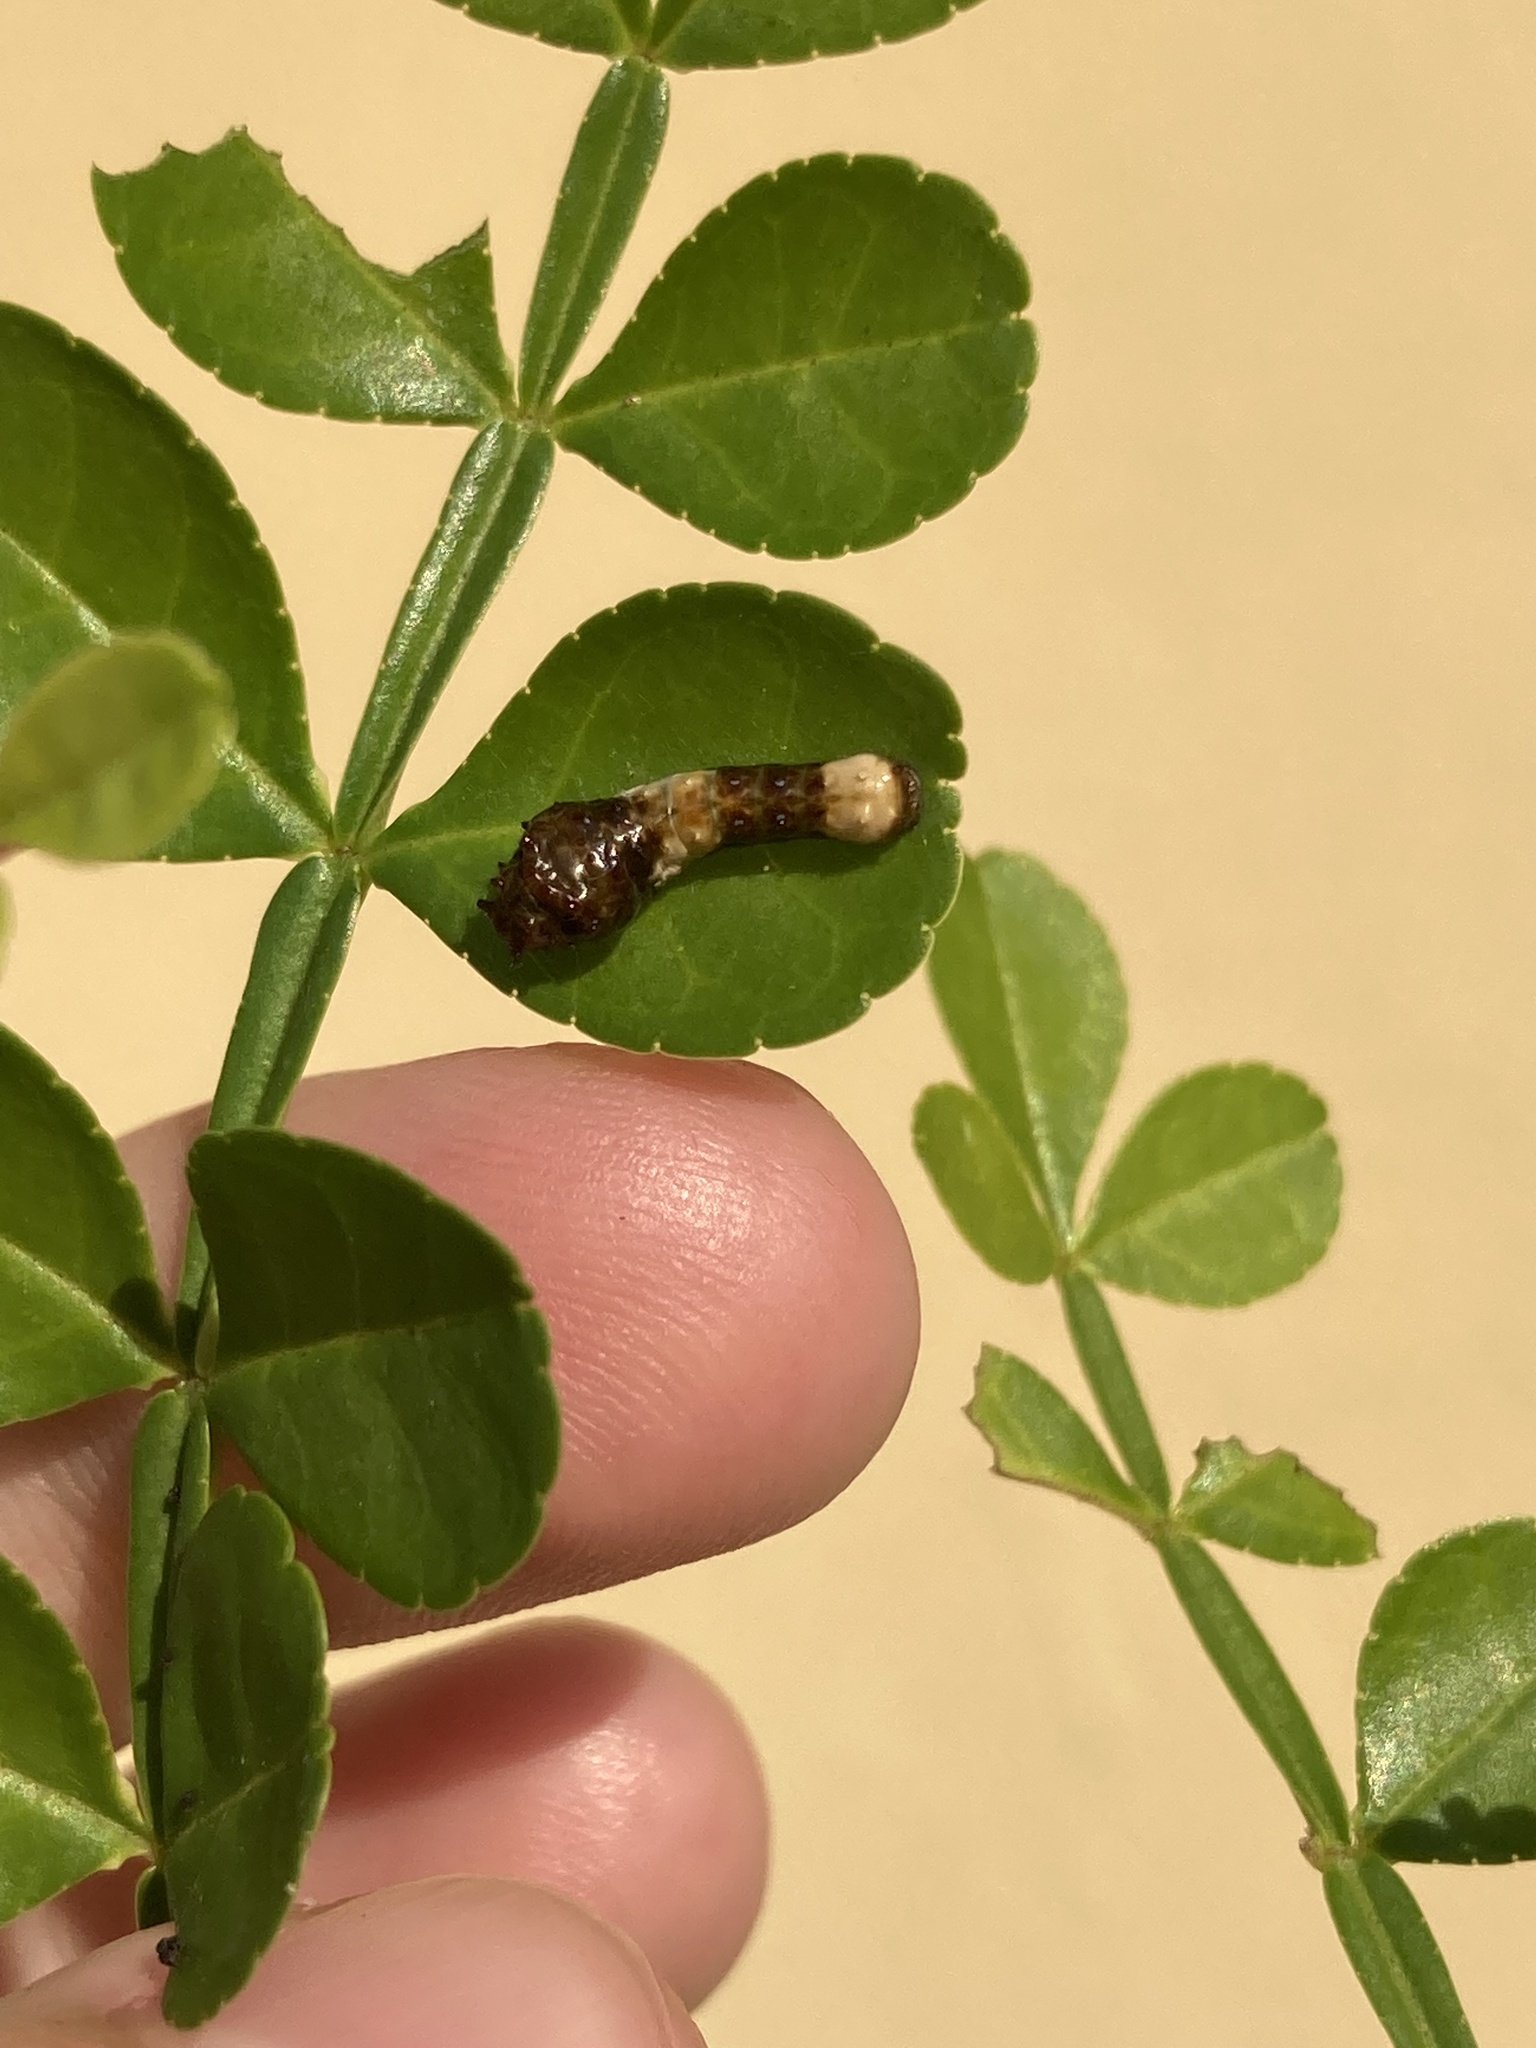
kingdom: Animalia
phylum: Arthropoda
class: Insecta
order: Lepidoptera
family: Papilionidae
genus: Papilio
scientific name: Papilio cresphontes
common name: Giant swallowtail
